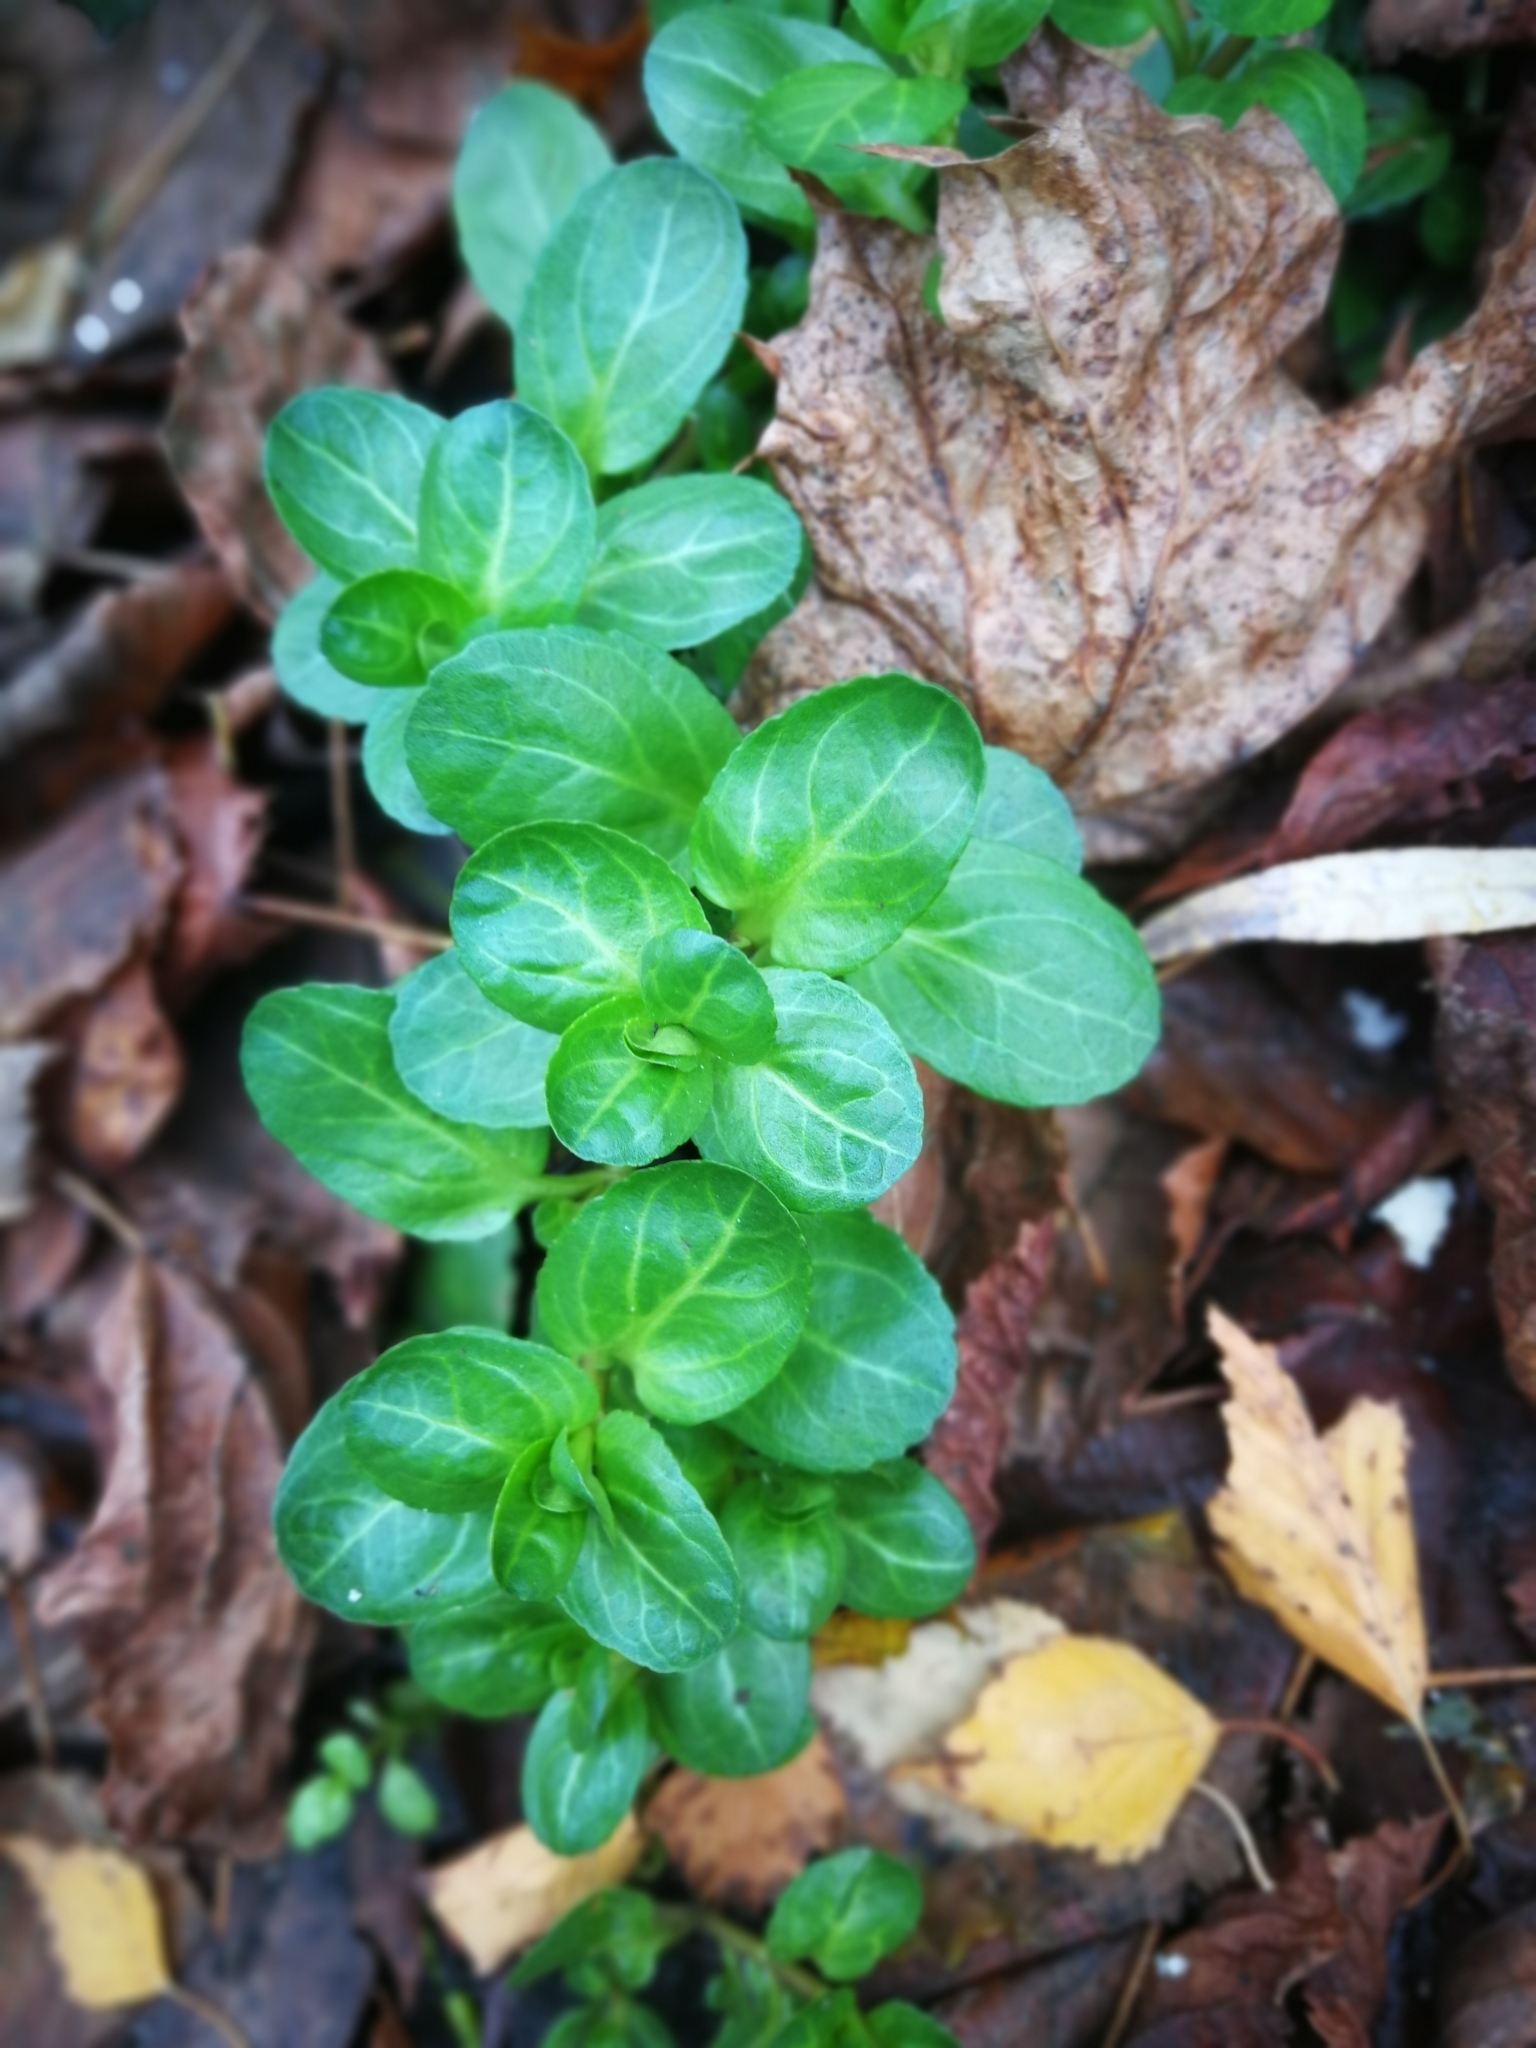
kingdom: Plantae
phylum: Tracheophyta
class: Magnoliopsida
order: Lamiales
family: Plantaginaceae
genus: Veronica
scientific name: Veronica beccabunga
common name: Brooklime
